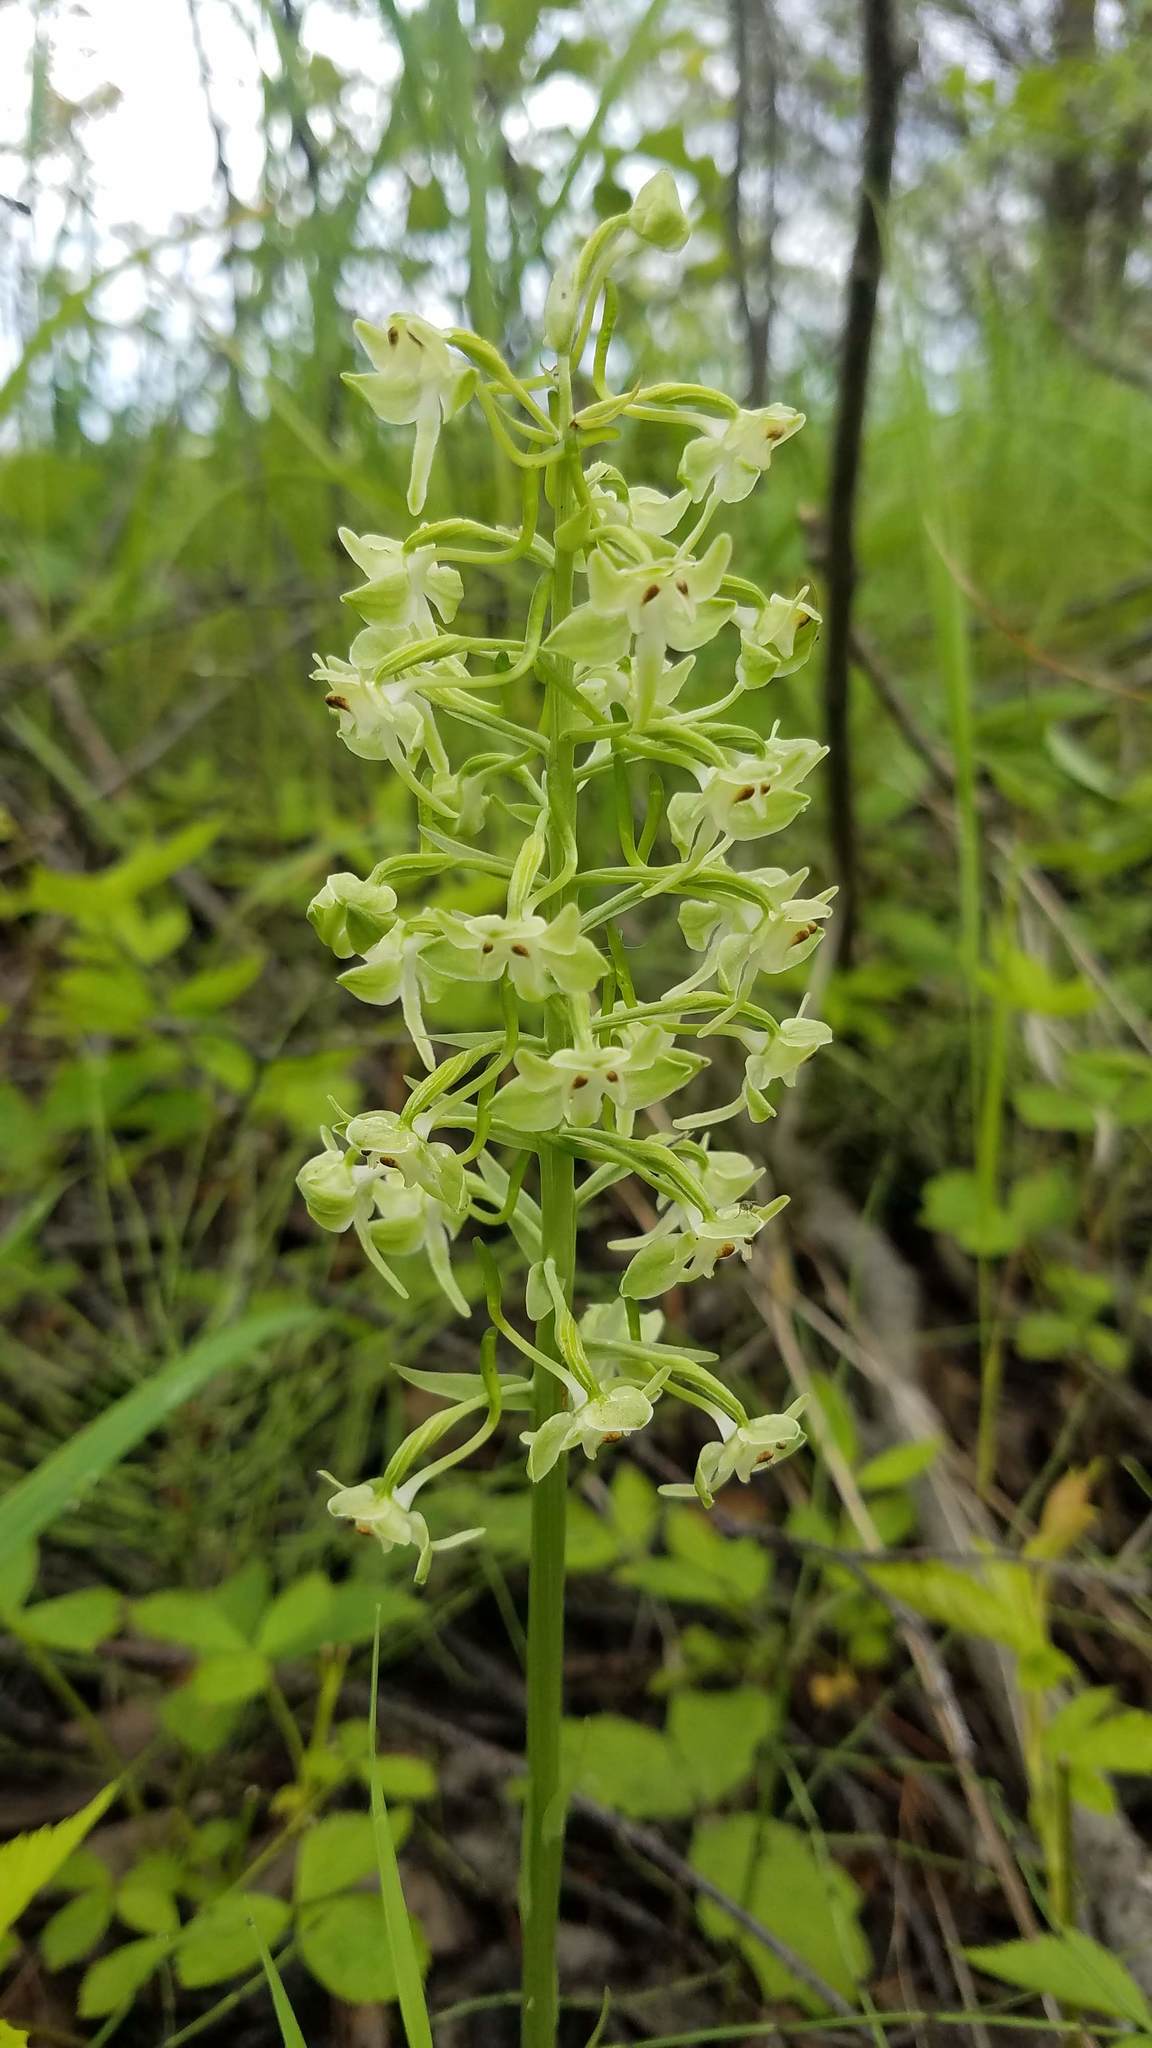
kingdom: Plantae
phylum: Tracheophyta
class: Liliopsida
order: Asparagales
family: Orchidaceae
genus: Platanthera
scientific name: Platanthera orbiculata
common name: Large round-leaved orchid
